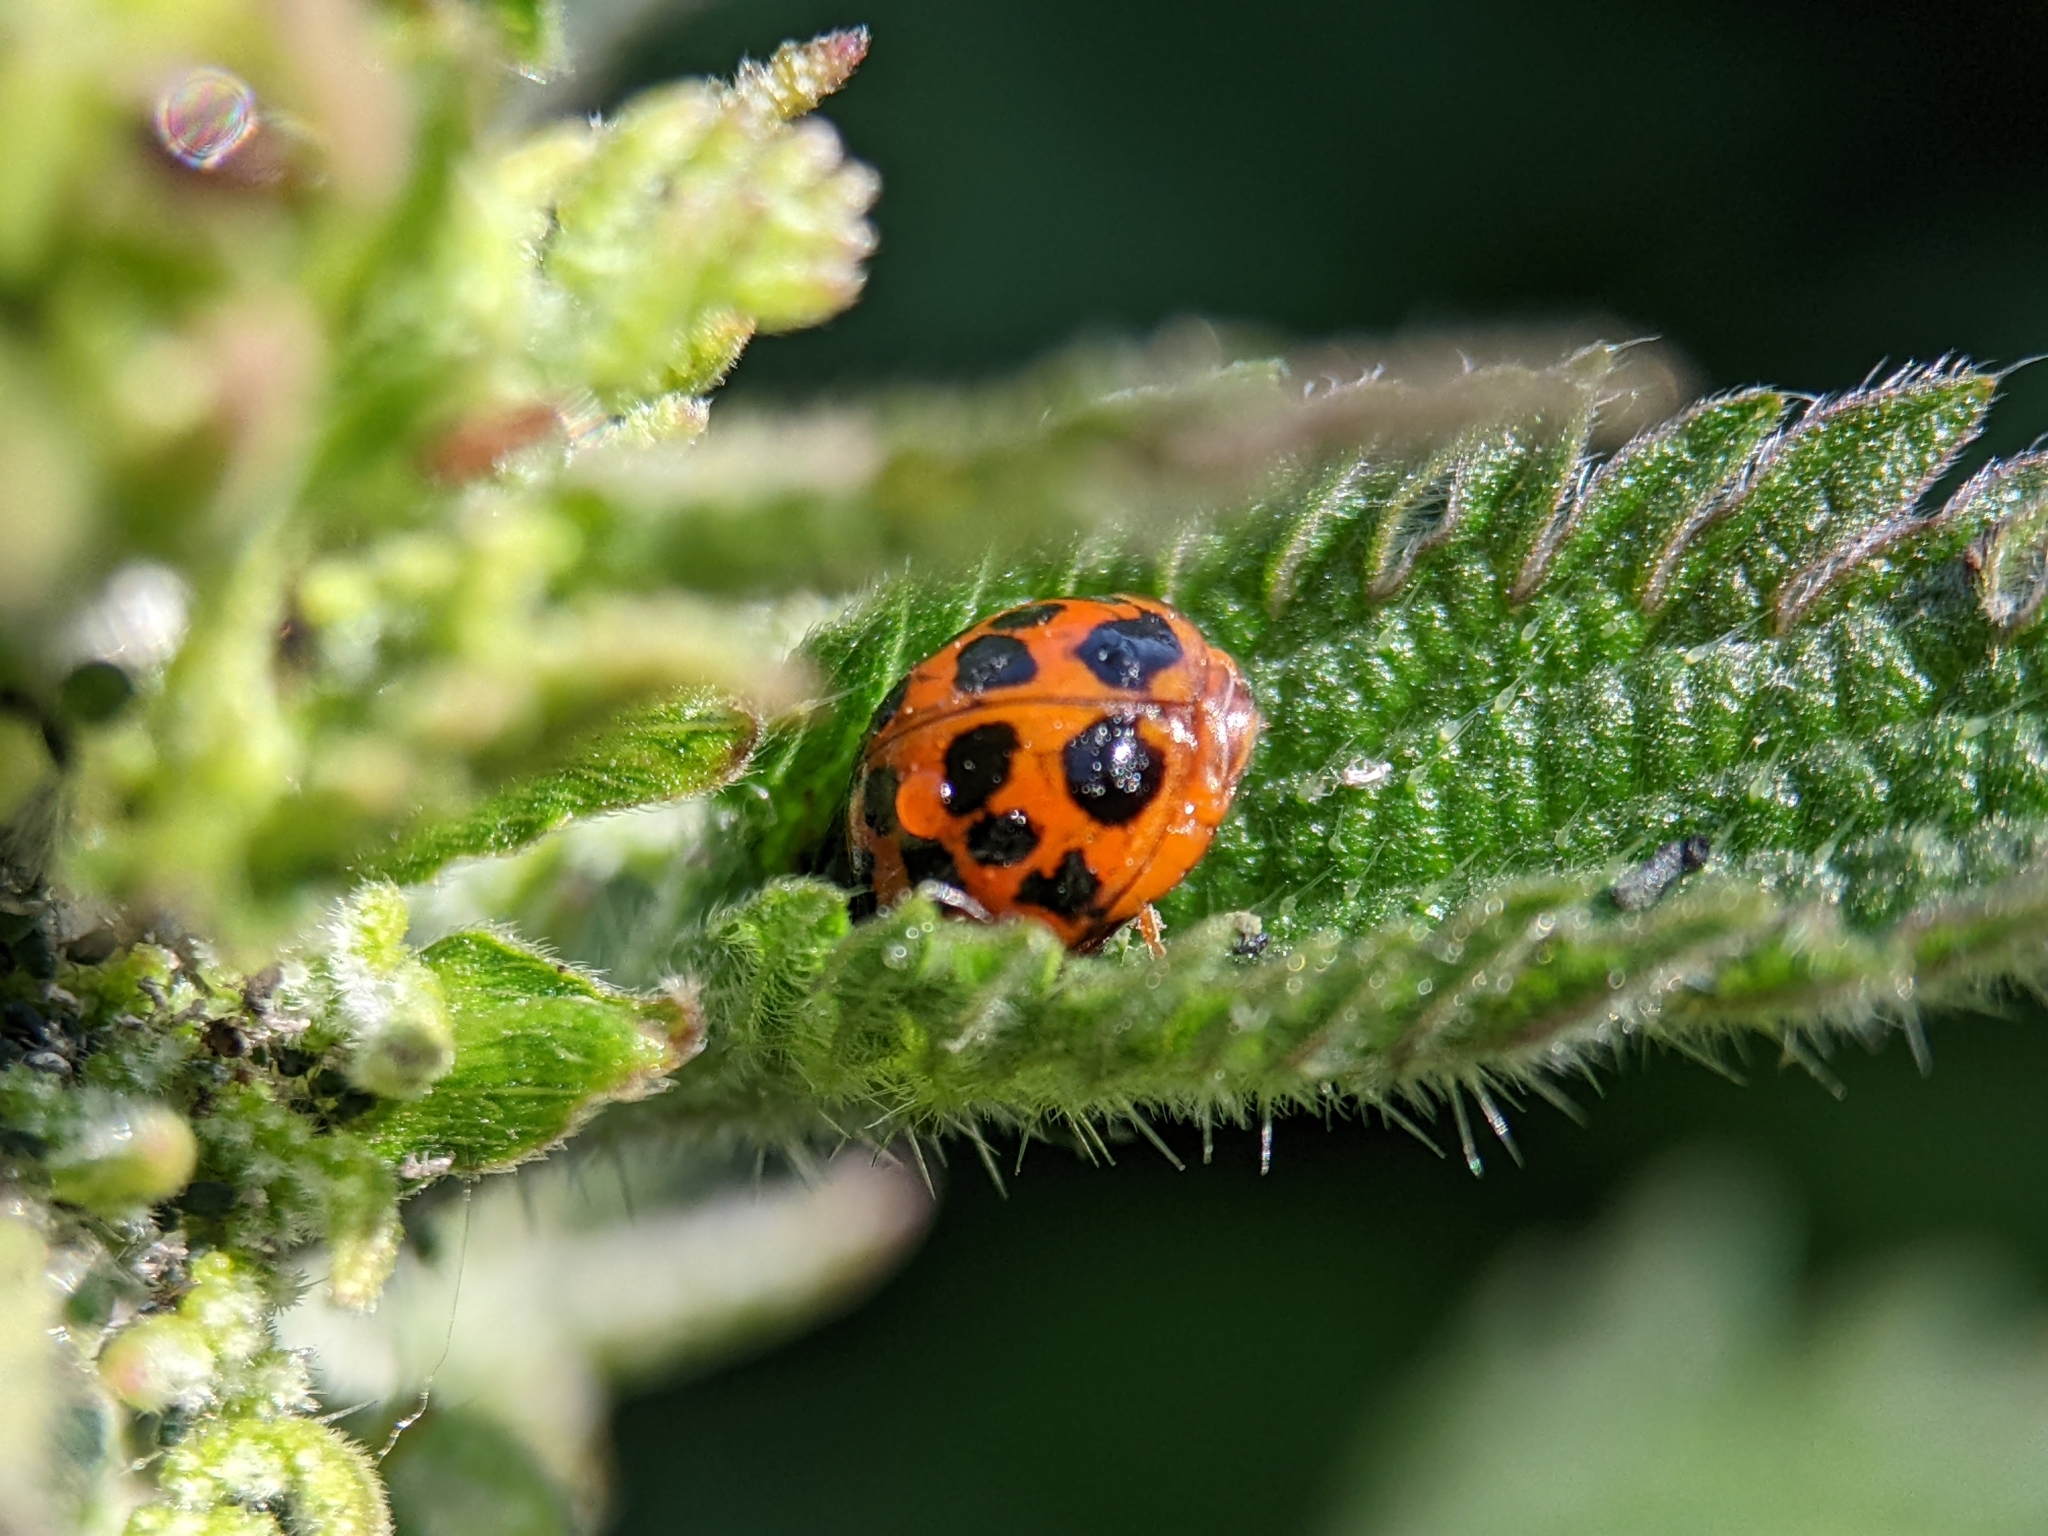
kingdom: Animalia
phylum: Arthropoda
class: Insecta
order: Coleoptera
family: Coccinellidae
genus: Harmonia
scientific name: Harmonia axyridis
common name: Harlequin ladybird
